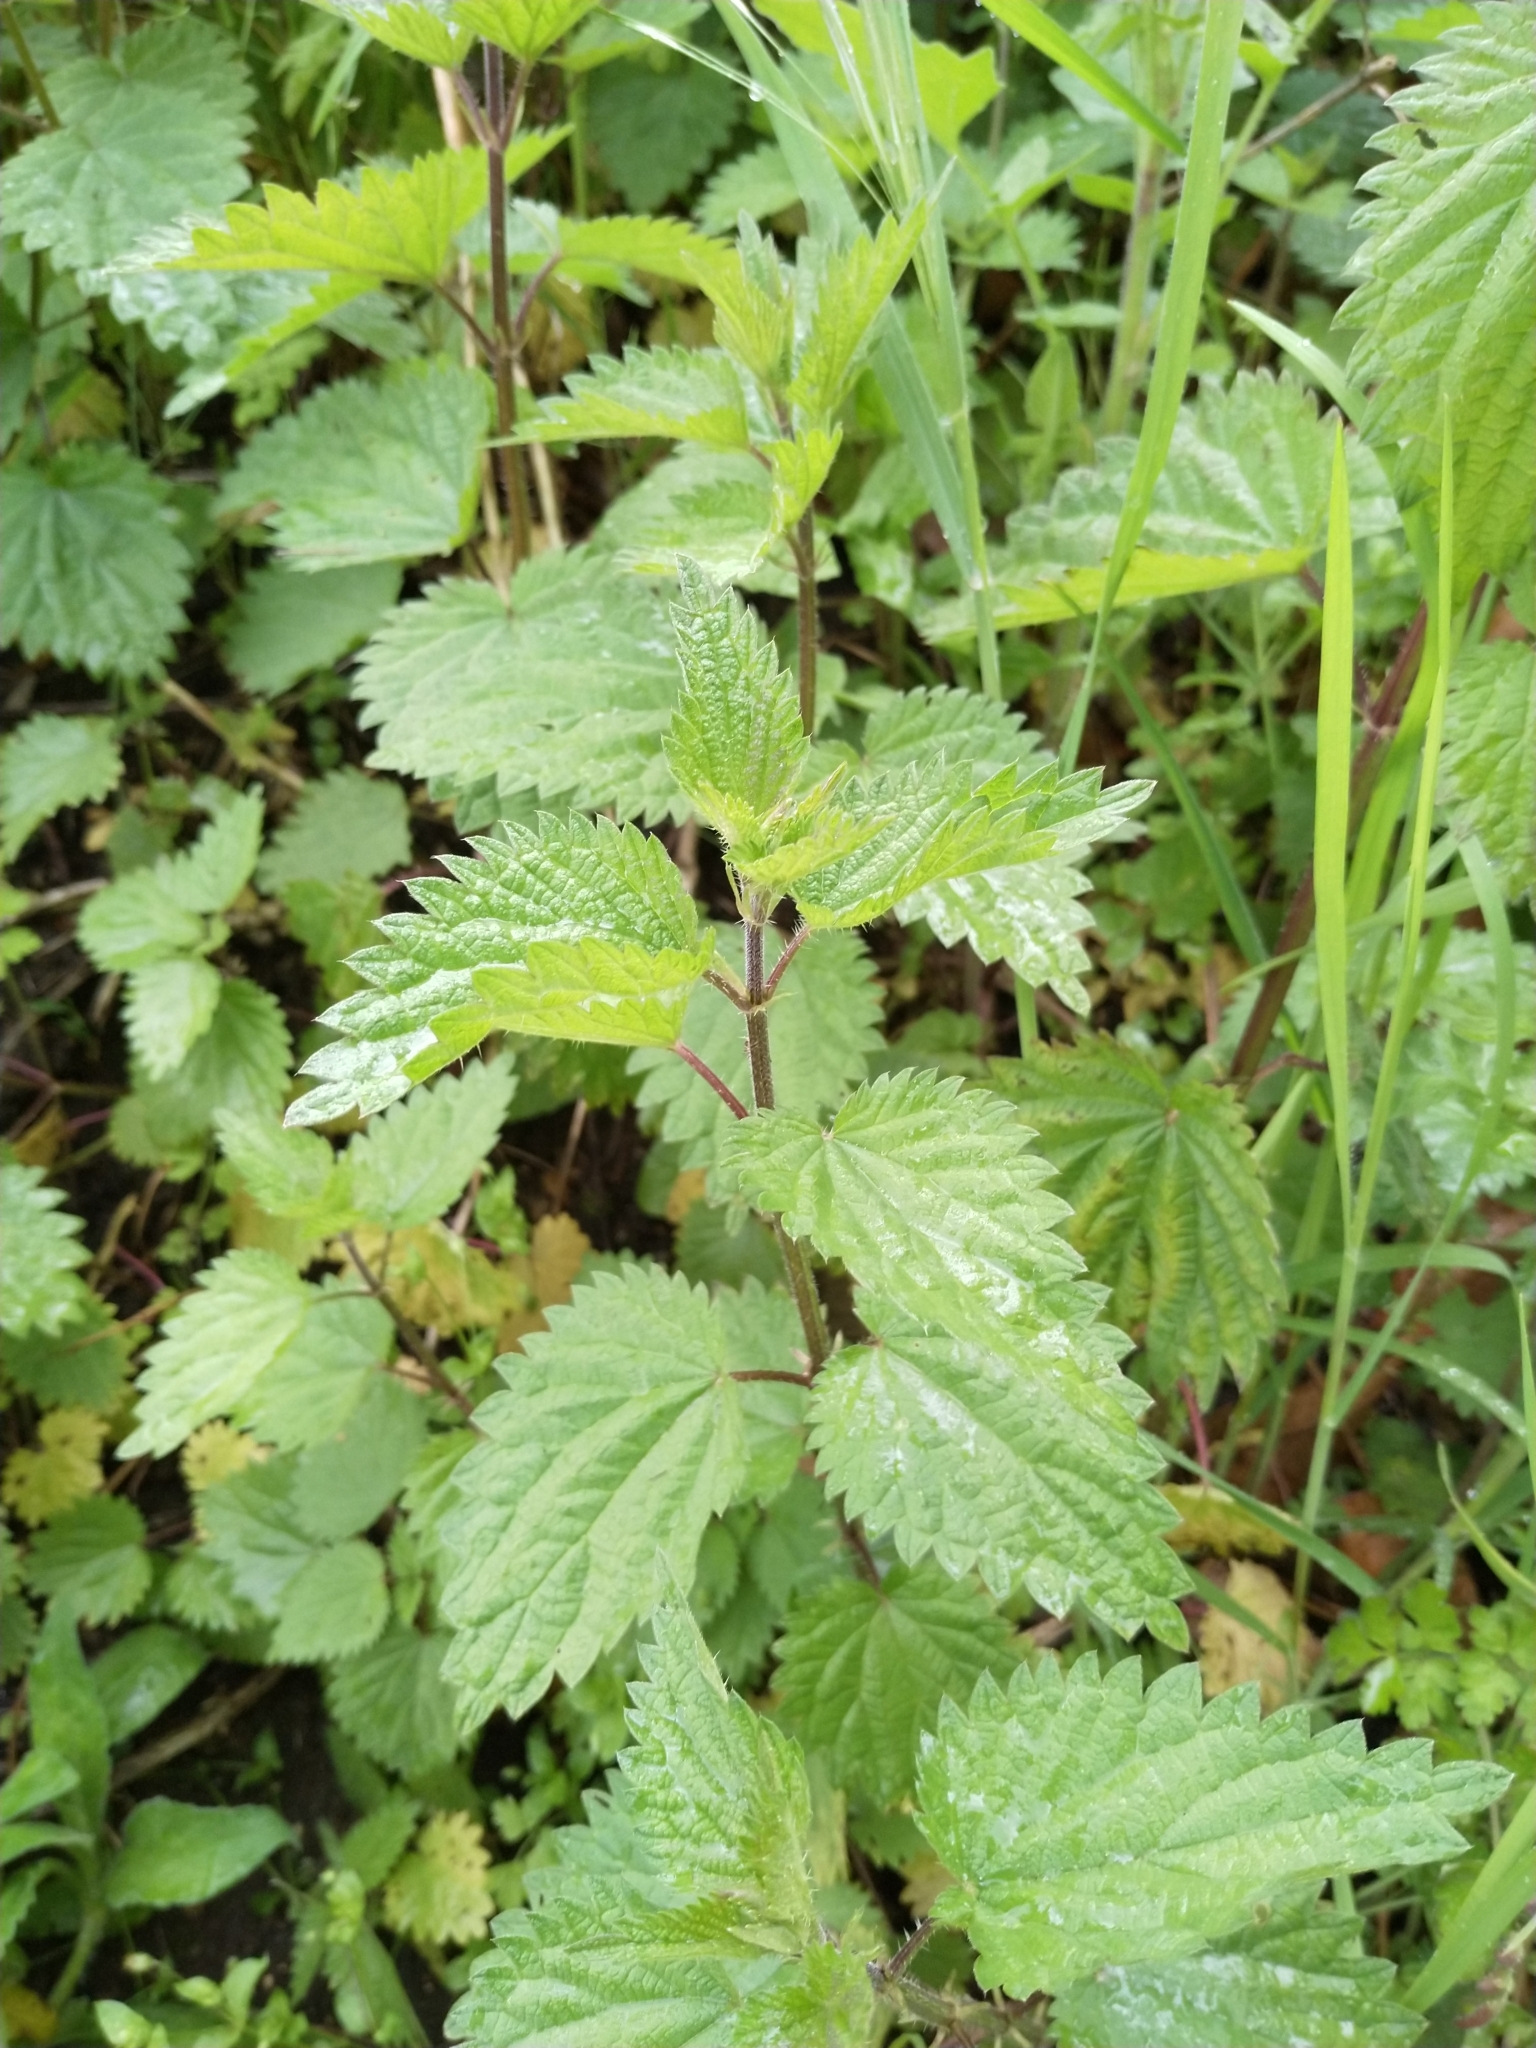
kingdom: Plantae
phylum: Tracheophyta
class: Magnoliopsida
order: Rosales
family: Urticaceae
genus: Urtica
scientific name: Urtica dioica
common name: Common nettle
